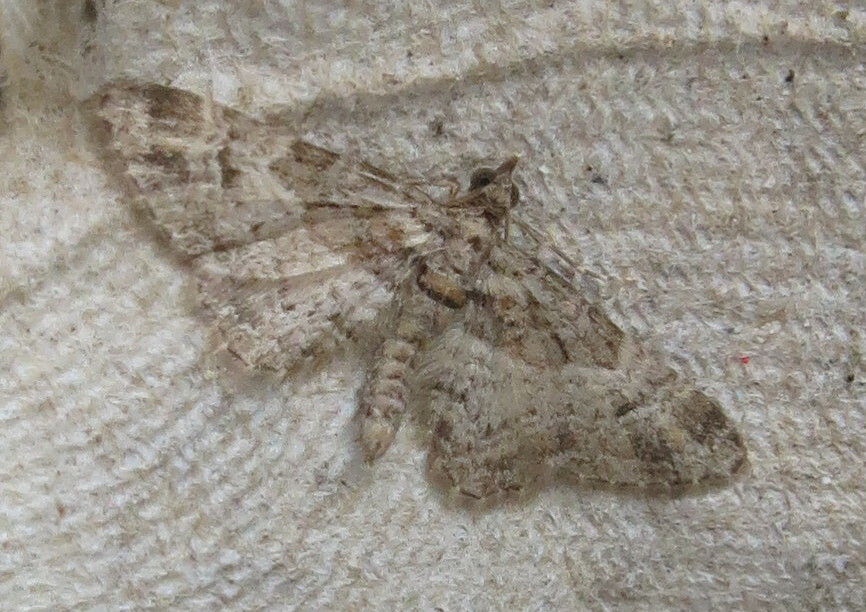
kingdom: Animalia
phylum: Arthropoda
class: Insecta
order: Lepidoptera
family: Geometridae
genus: Gymnoscelis
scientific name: Gymnoscelis rufifasciata
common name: Double-striped pug
